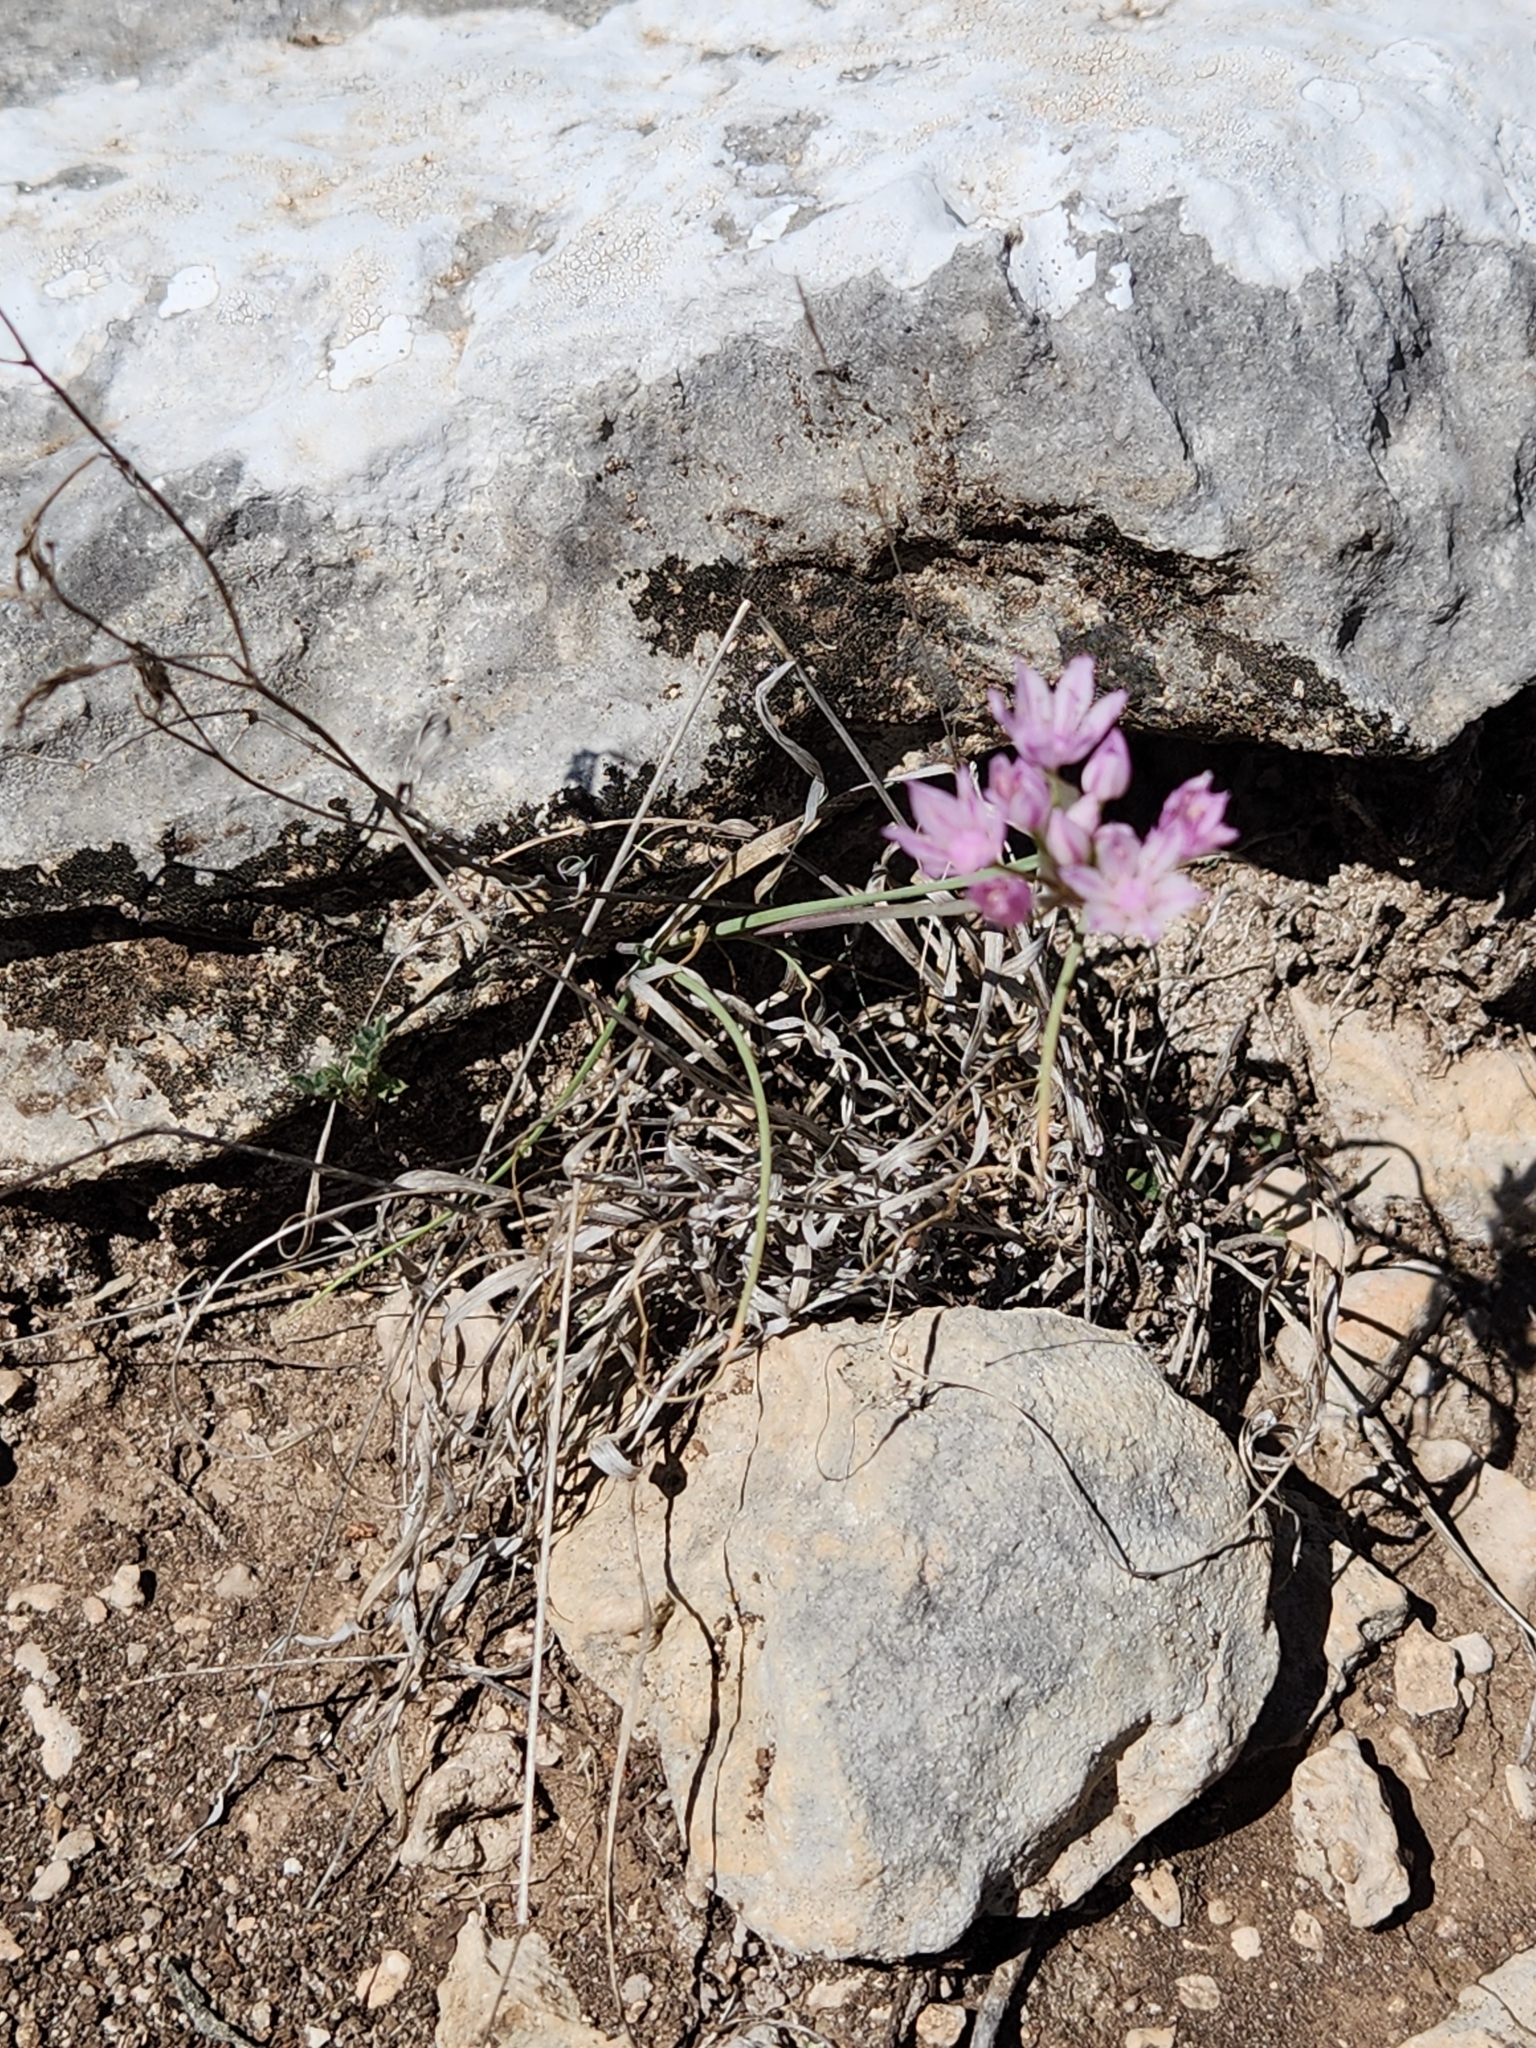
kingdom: Plantae
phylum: Tracheophyta
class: Liliopsida
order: Asparagales
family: Amaryllidaceae
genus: Allium
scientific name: Allium drummondii
